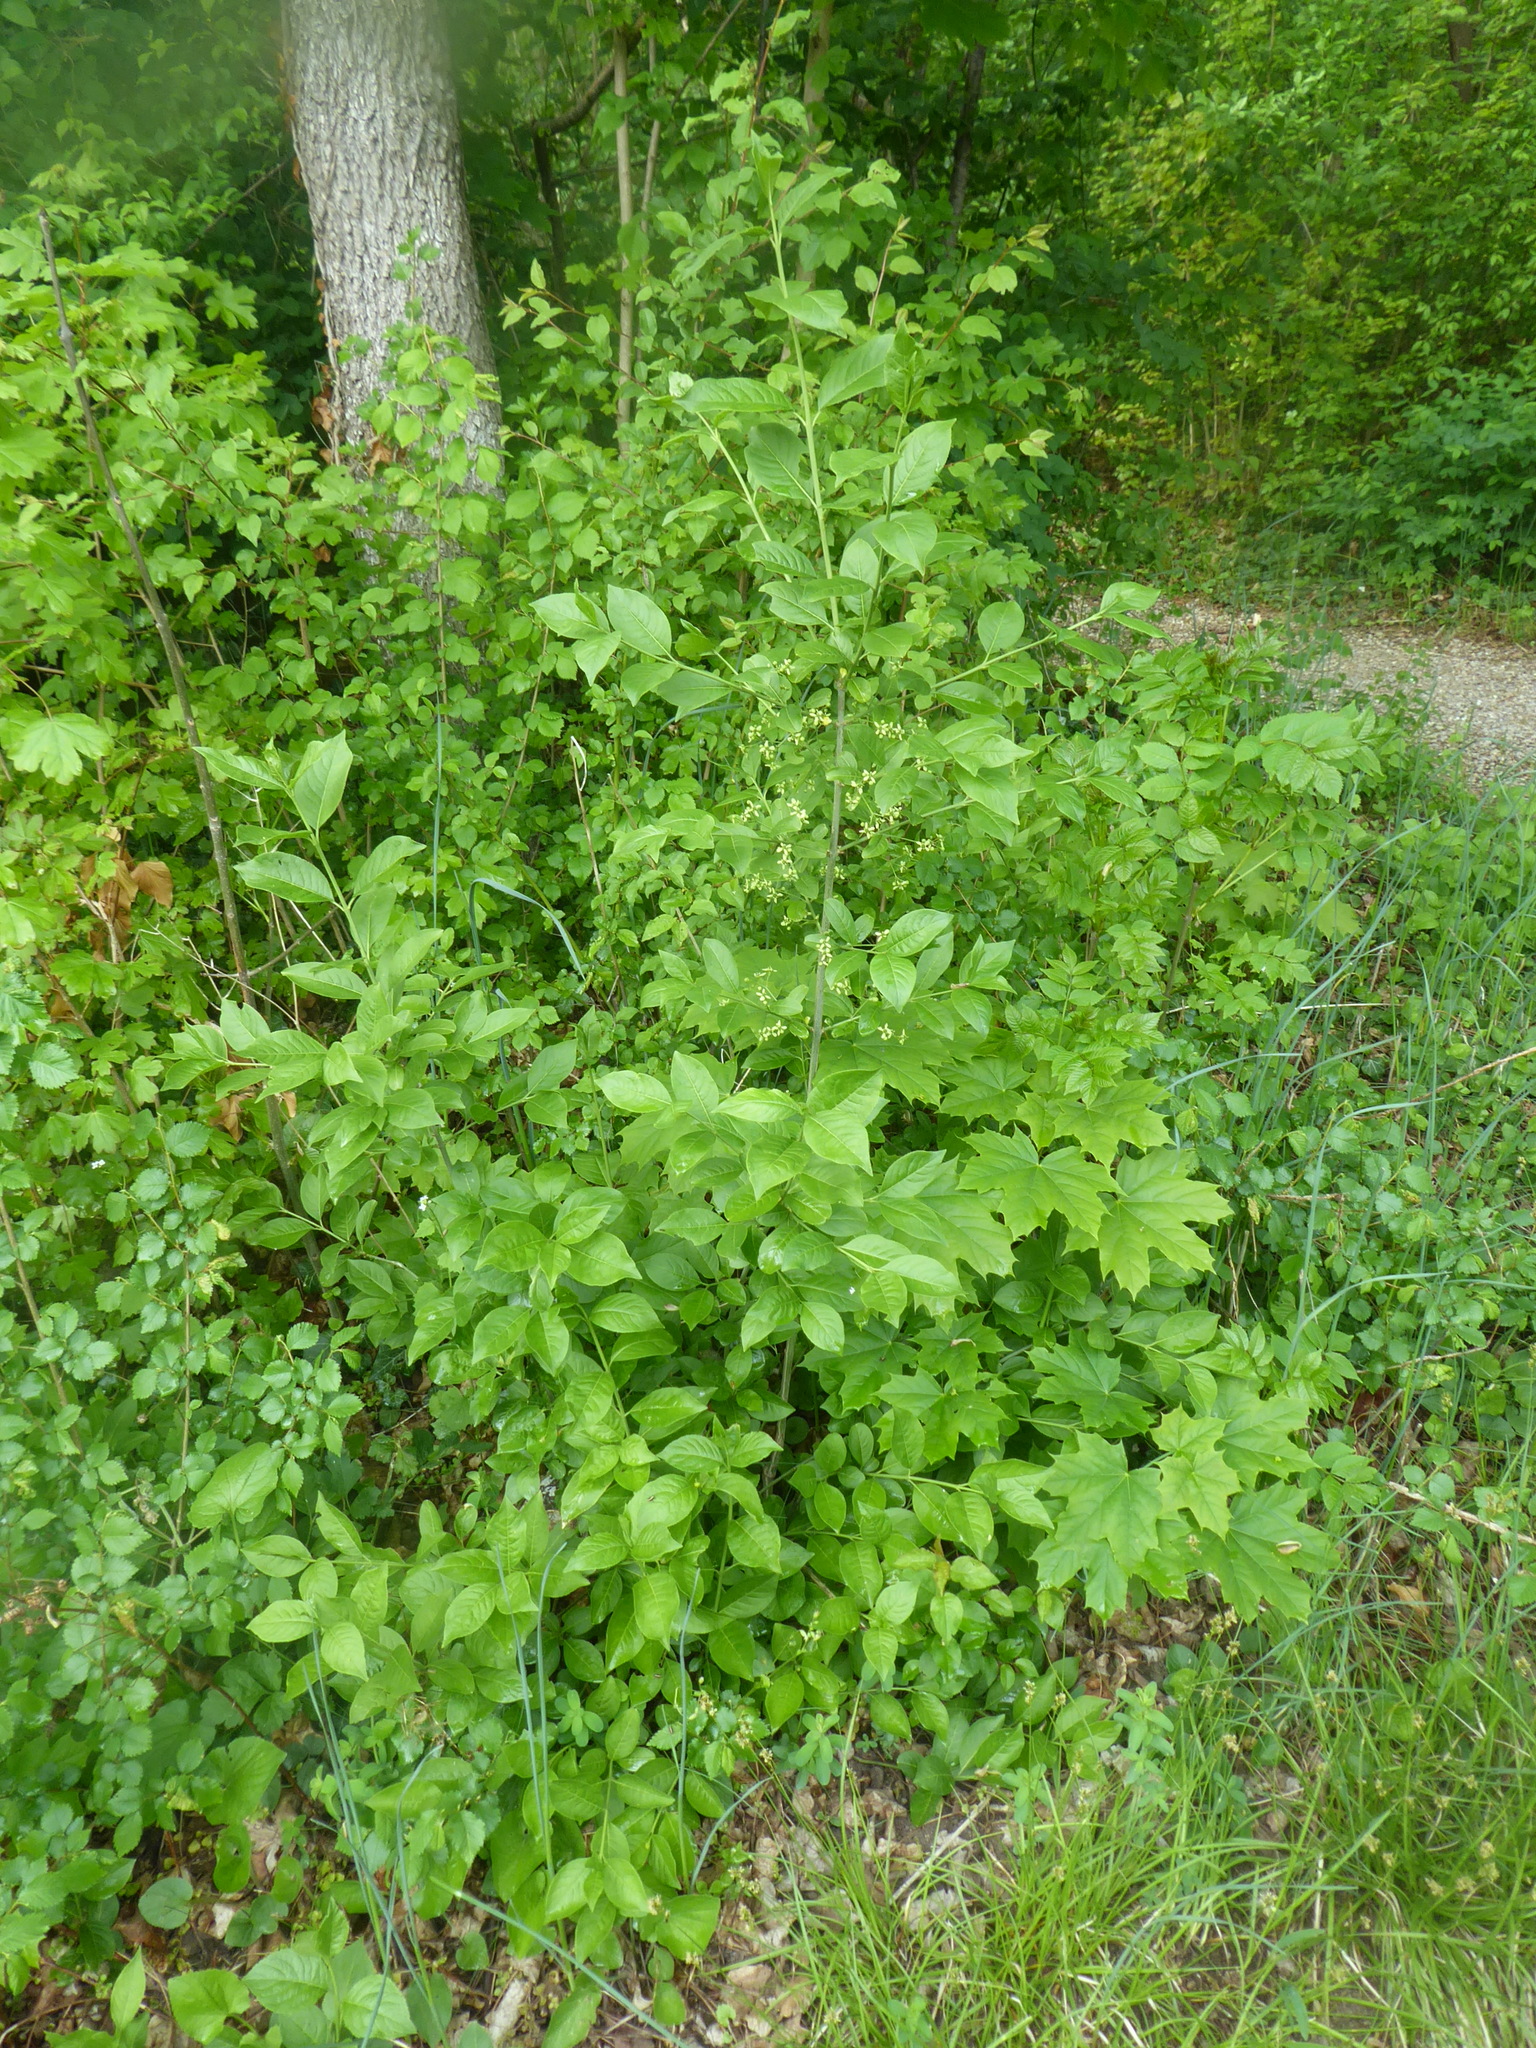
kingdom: Plantae
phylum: Tracheophyta
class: Magnoliopsida
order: Celastrales
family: Celastraceae
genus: Euonymus
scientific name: Euonymus europaeus
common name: Spindle
